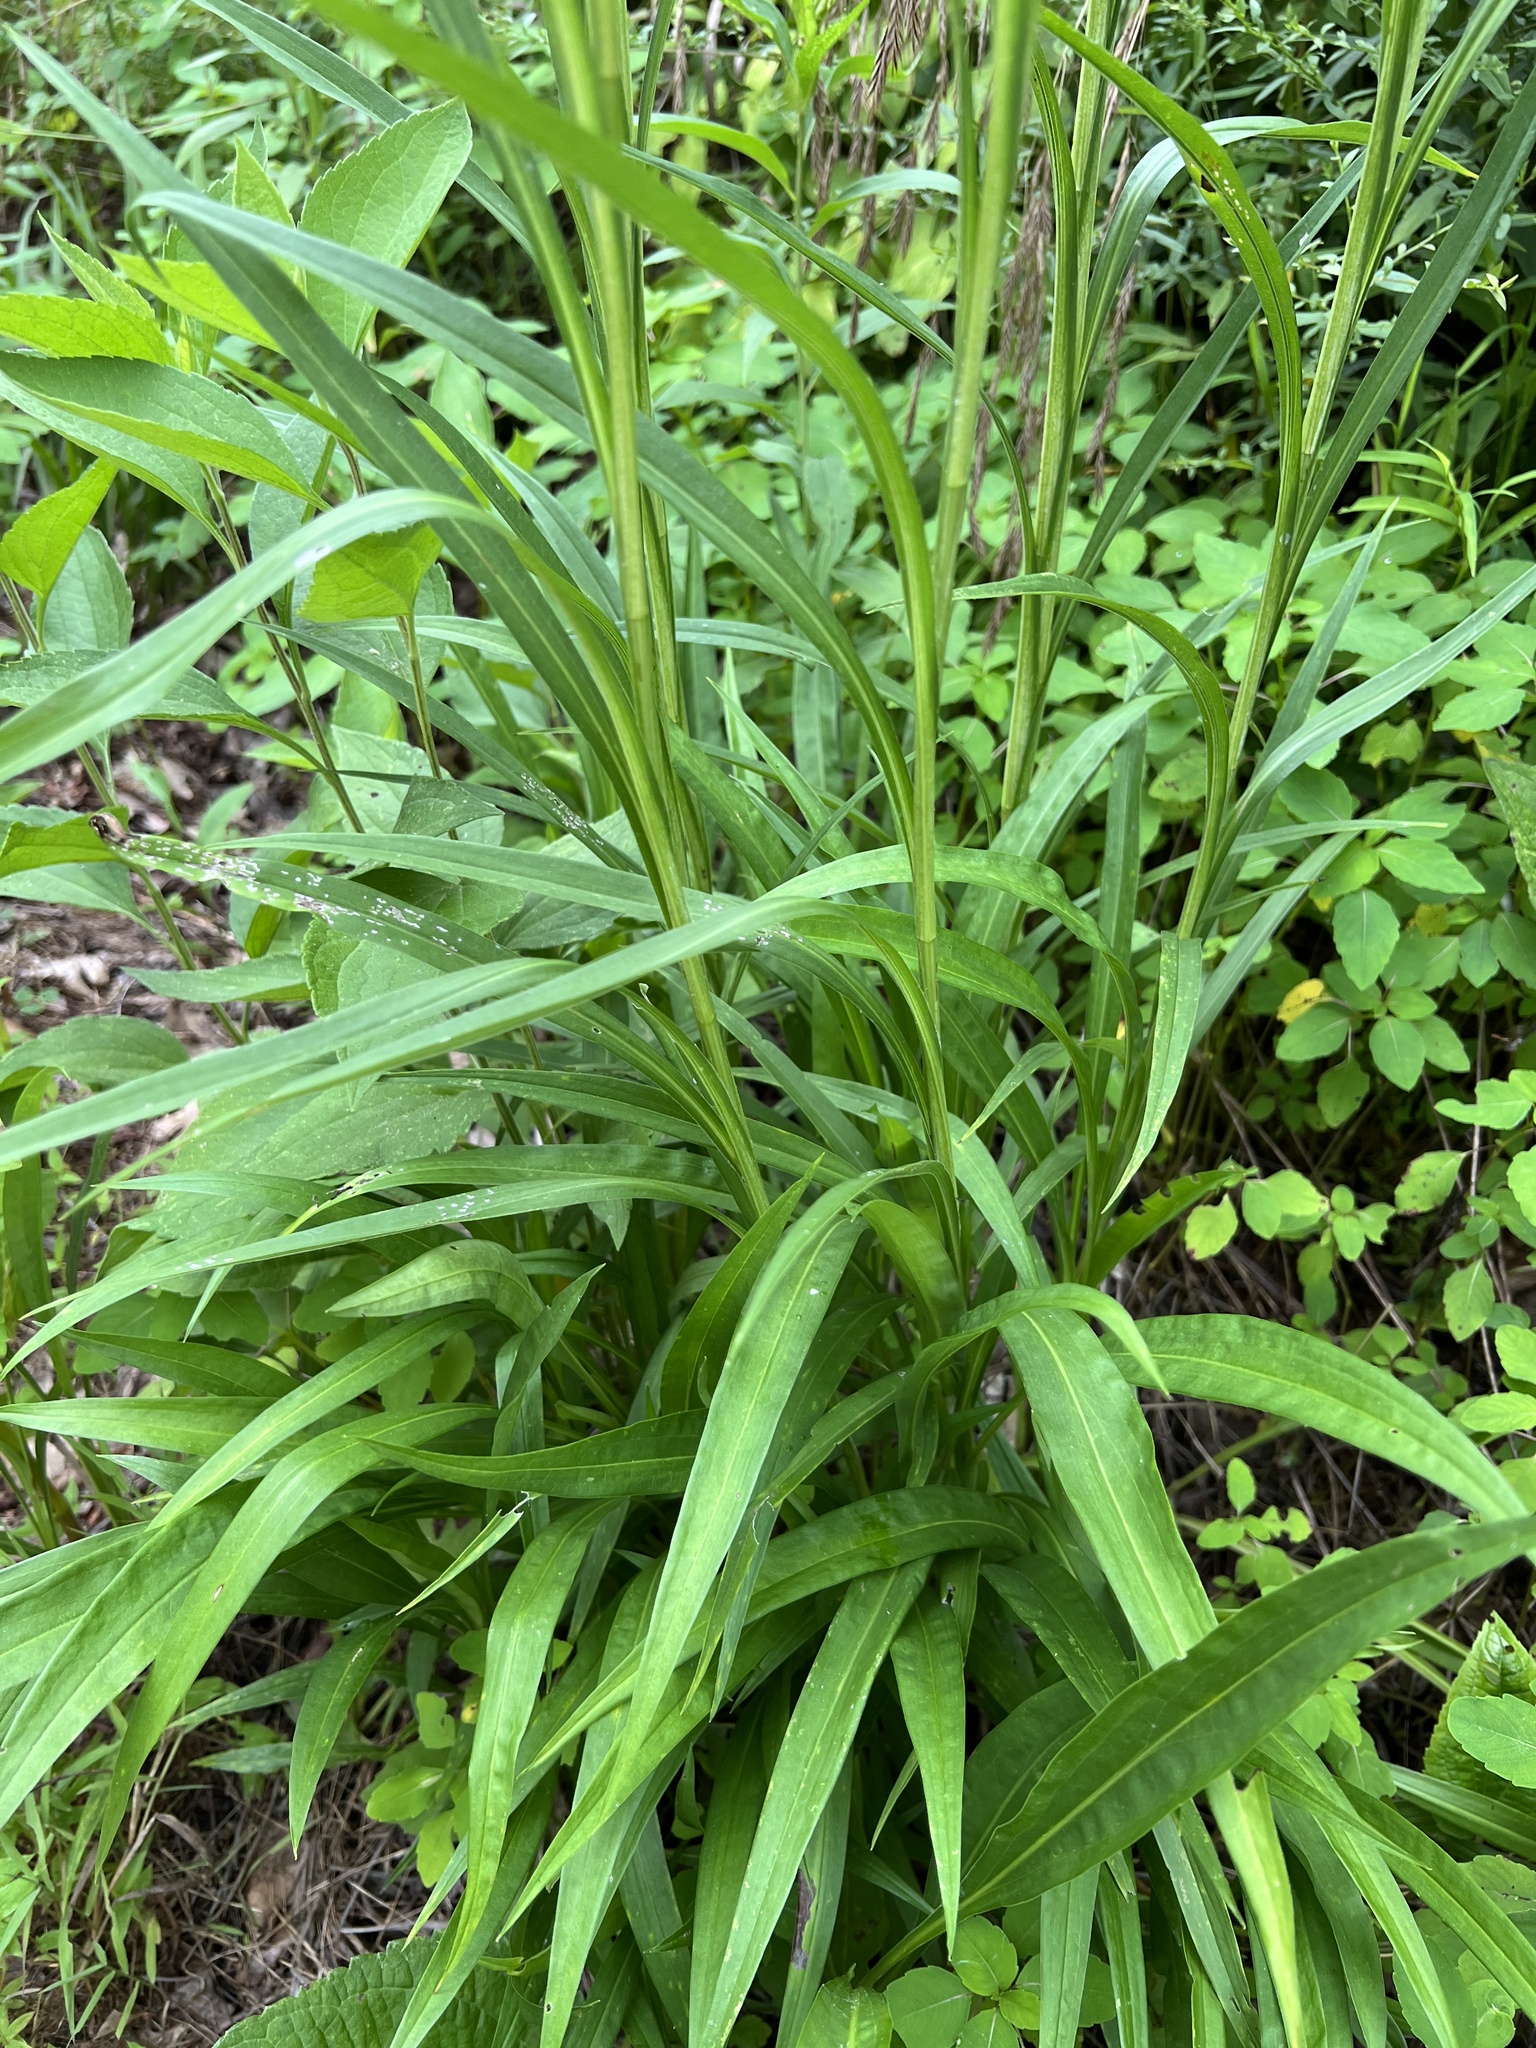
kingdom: Plantae
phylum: Tracheophyta
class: Magnoliopsida
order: Asterales
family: Asteraceae
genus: Solidago
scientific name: Solidago riddellii
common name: Riddell's goldenrod
